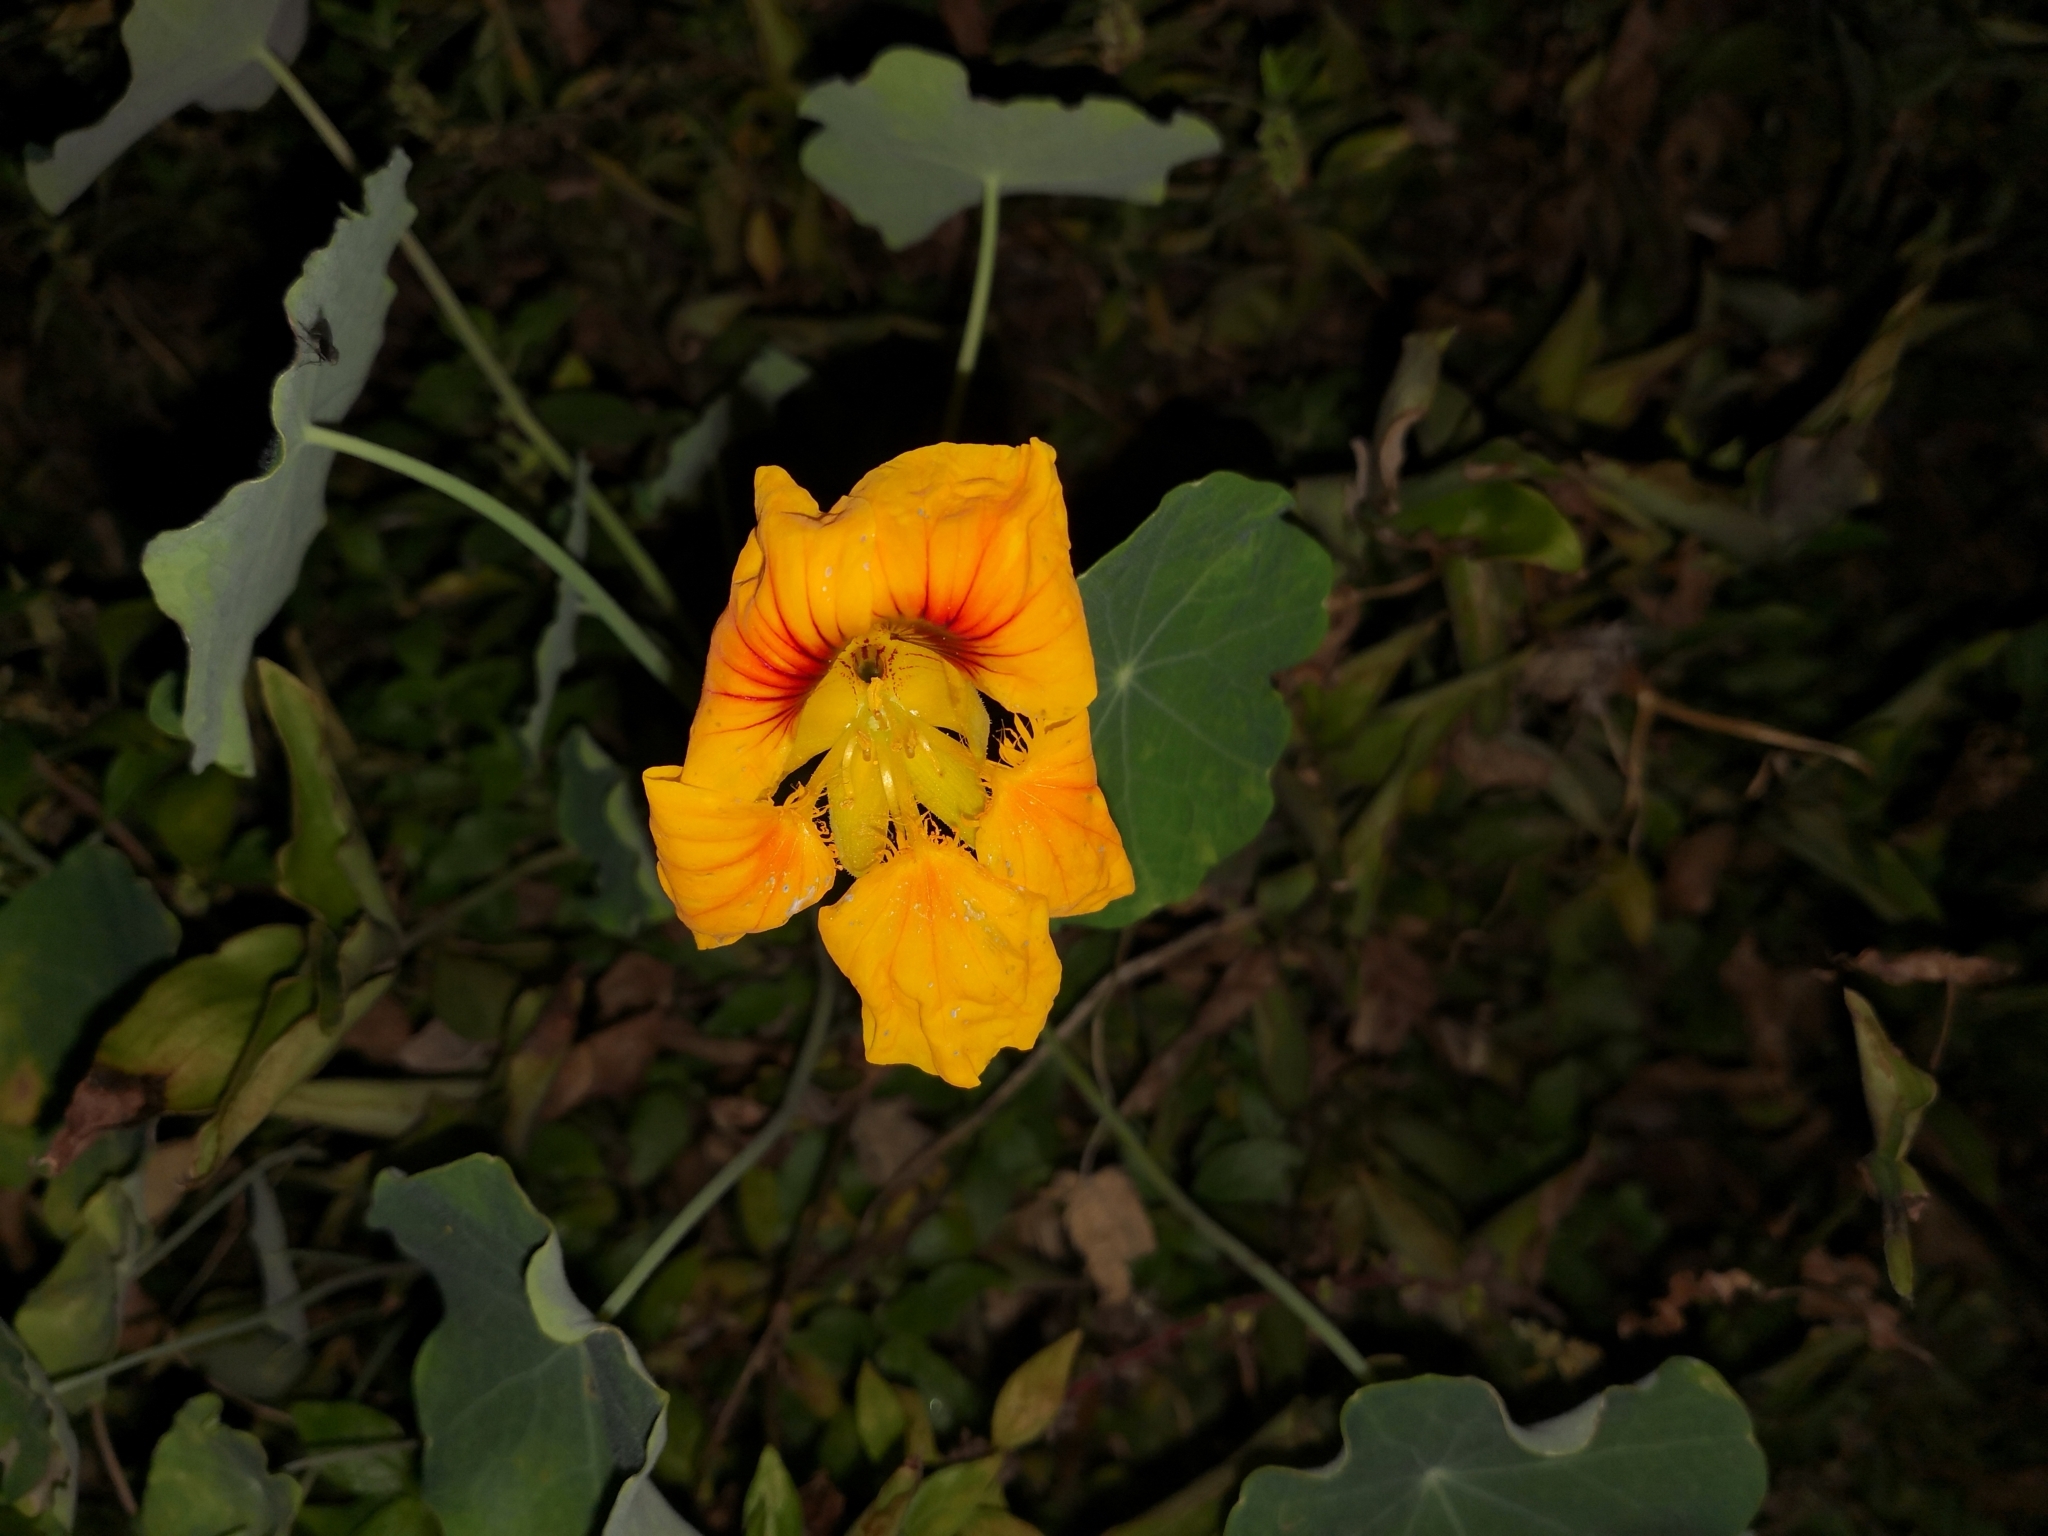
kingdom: Plantae
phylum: Tracheophyta
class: Magnoliopsida
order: Brassicales
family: Tropaeolaceae
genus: Tropaeolum
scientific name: Tropaeolum majus
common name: Nasturtium
